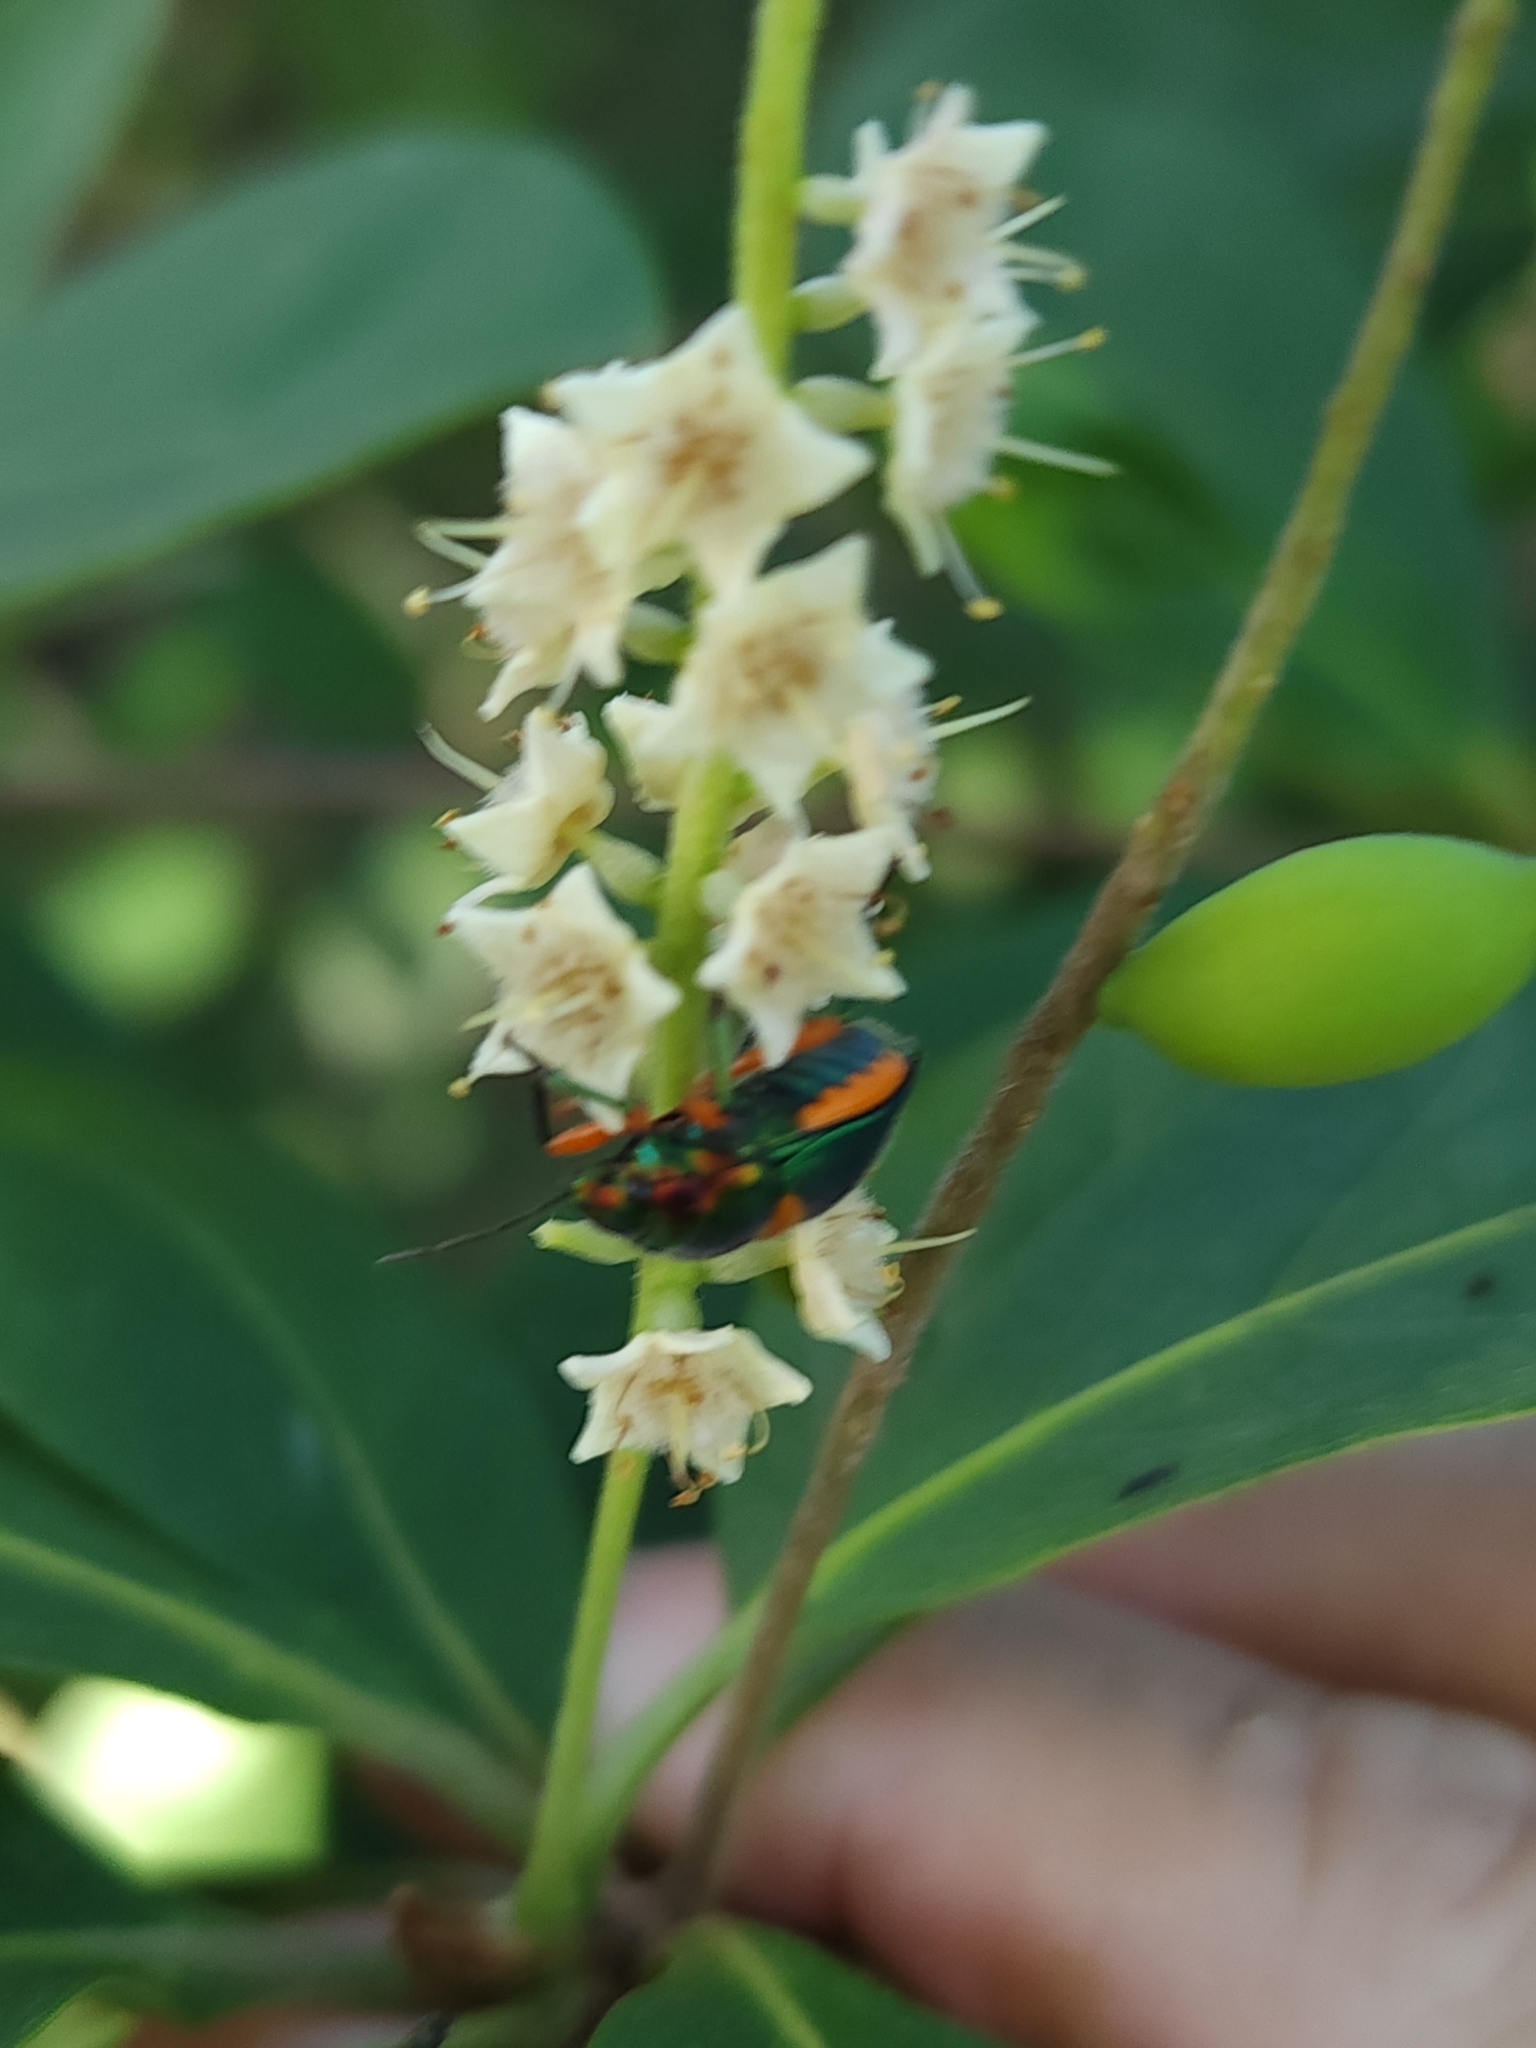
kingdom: Animalia
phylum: Arthropoda
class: Insecta
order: Hemiptera
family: Scutelleridae
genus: Lampromicra
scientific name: Lampromicra senator
